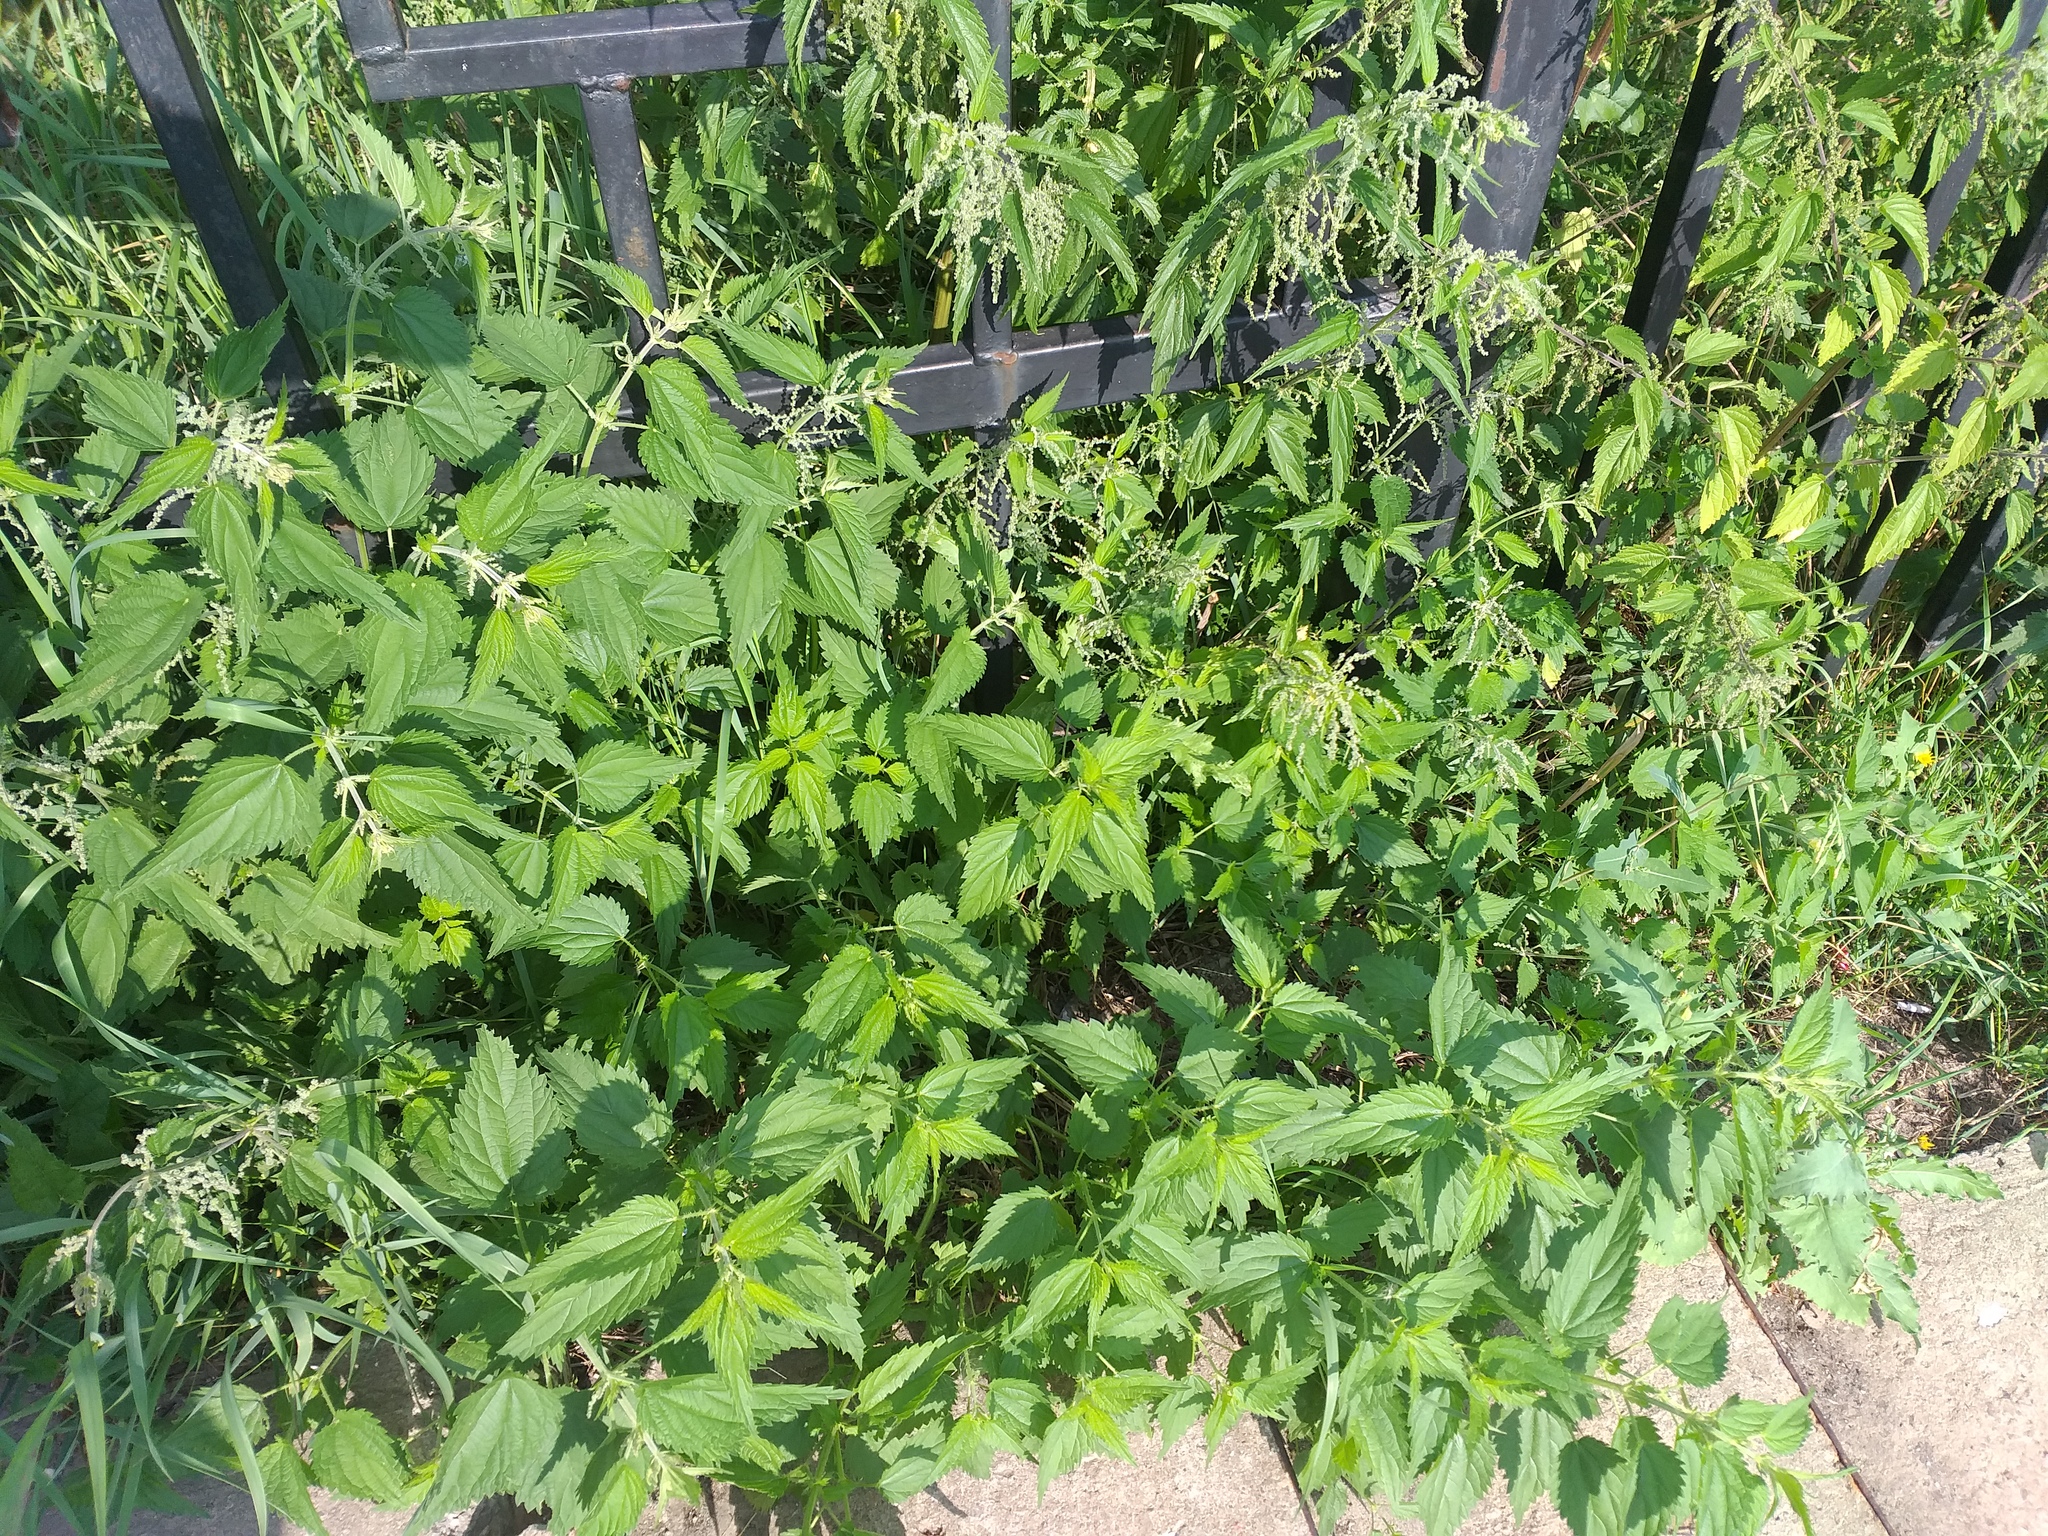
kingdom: Plantae
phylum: Tracheophyta
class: Magnoliopsida
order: Rosales
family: Urticaceae
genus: Urtica
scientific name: Urtica dioica
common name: Common nettle
